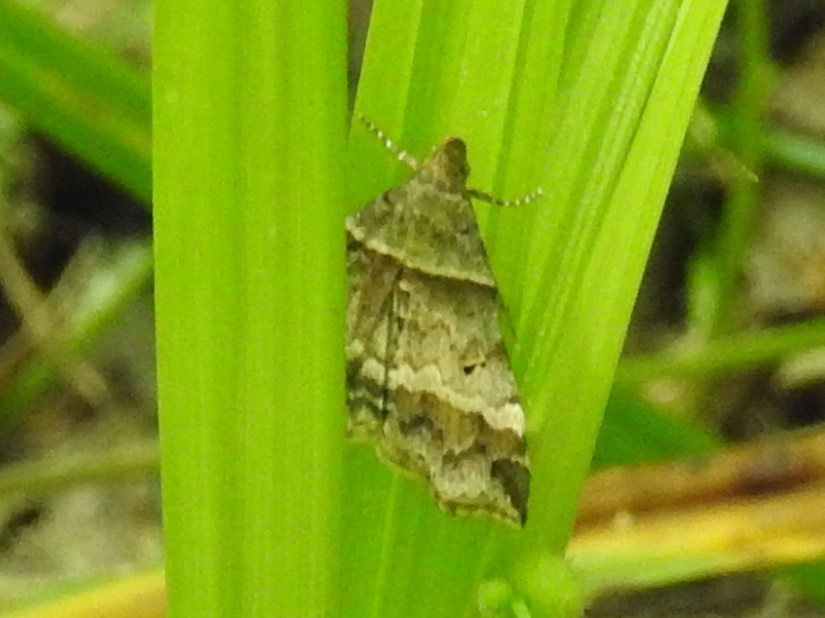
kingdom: Animalia
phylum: Arthropoda
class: Insecta
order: Lepidoptera
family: Erebidae
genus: Phaeolita
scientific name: Phaeolita pyramusalis
